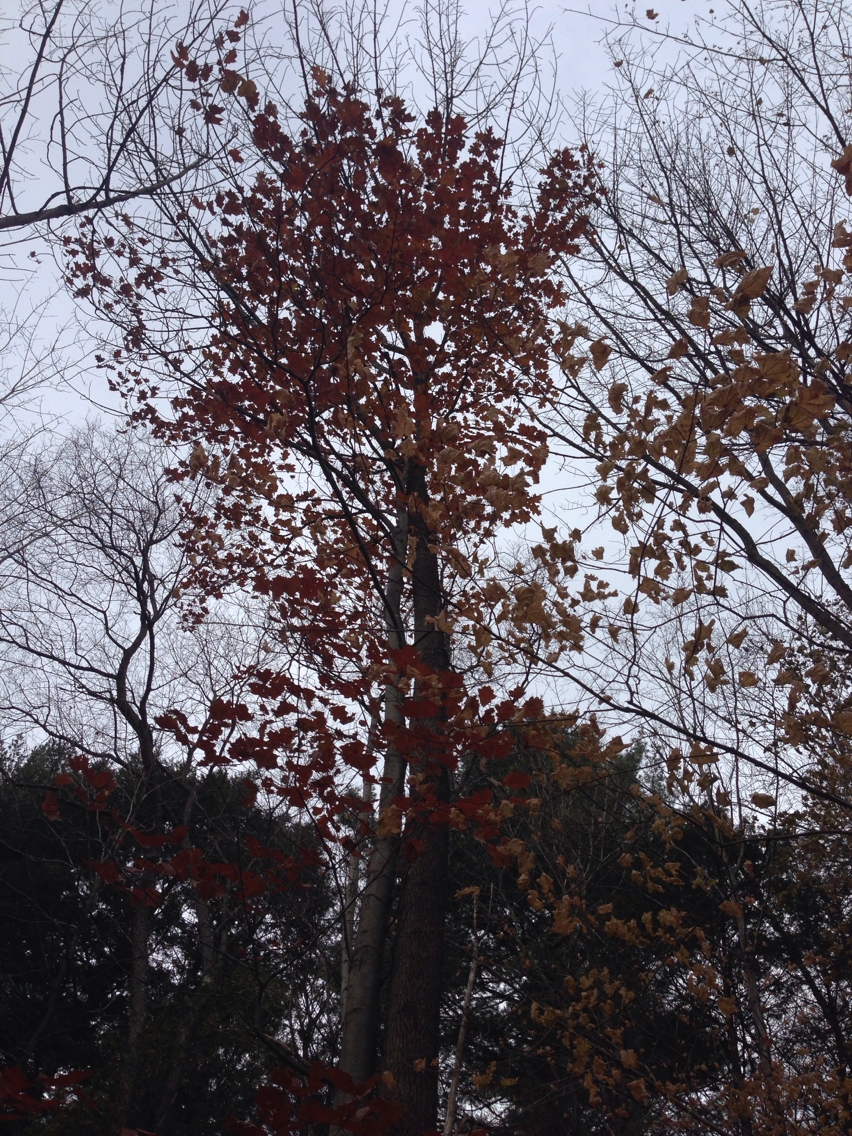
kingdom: Plantae
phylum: Tracheophyta
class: Magnoliopsida
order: Fagales
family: Fagaceae
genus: Quercus
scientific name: Quercus rubra
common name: Red oak
